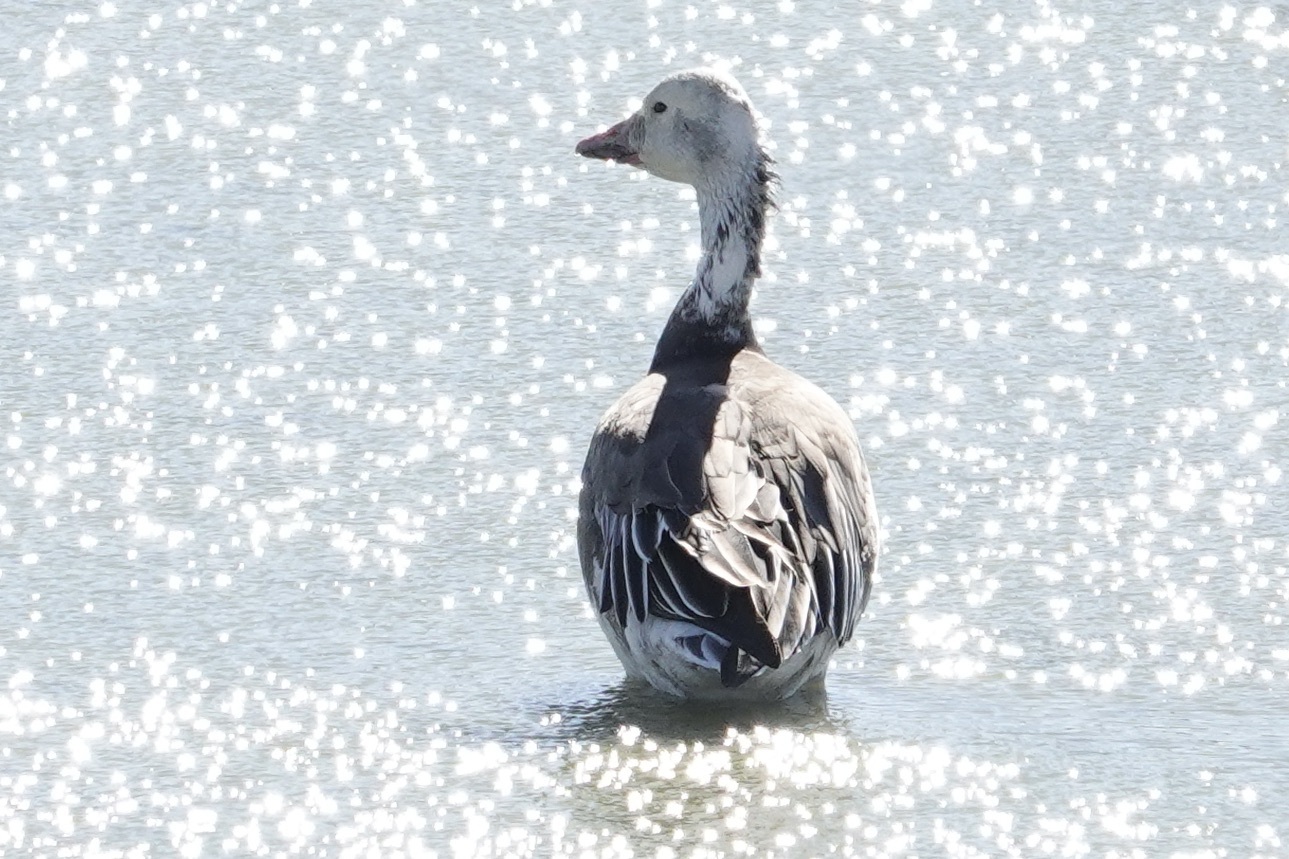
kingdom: Animalia
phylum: Chordata
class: Aves
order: Anseriformes
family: Anatidae
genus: Anser
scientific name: Anser caerulescens
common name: Snow goose
